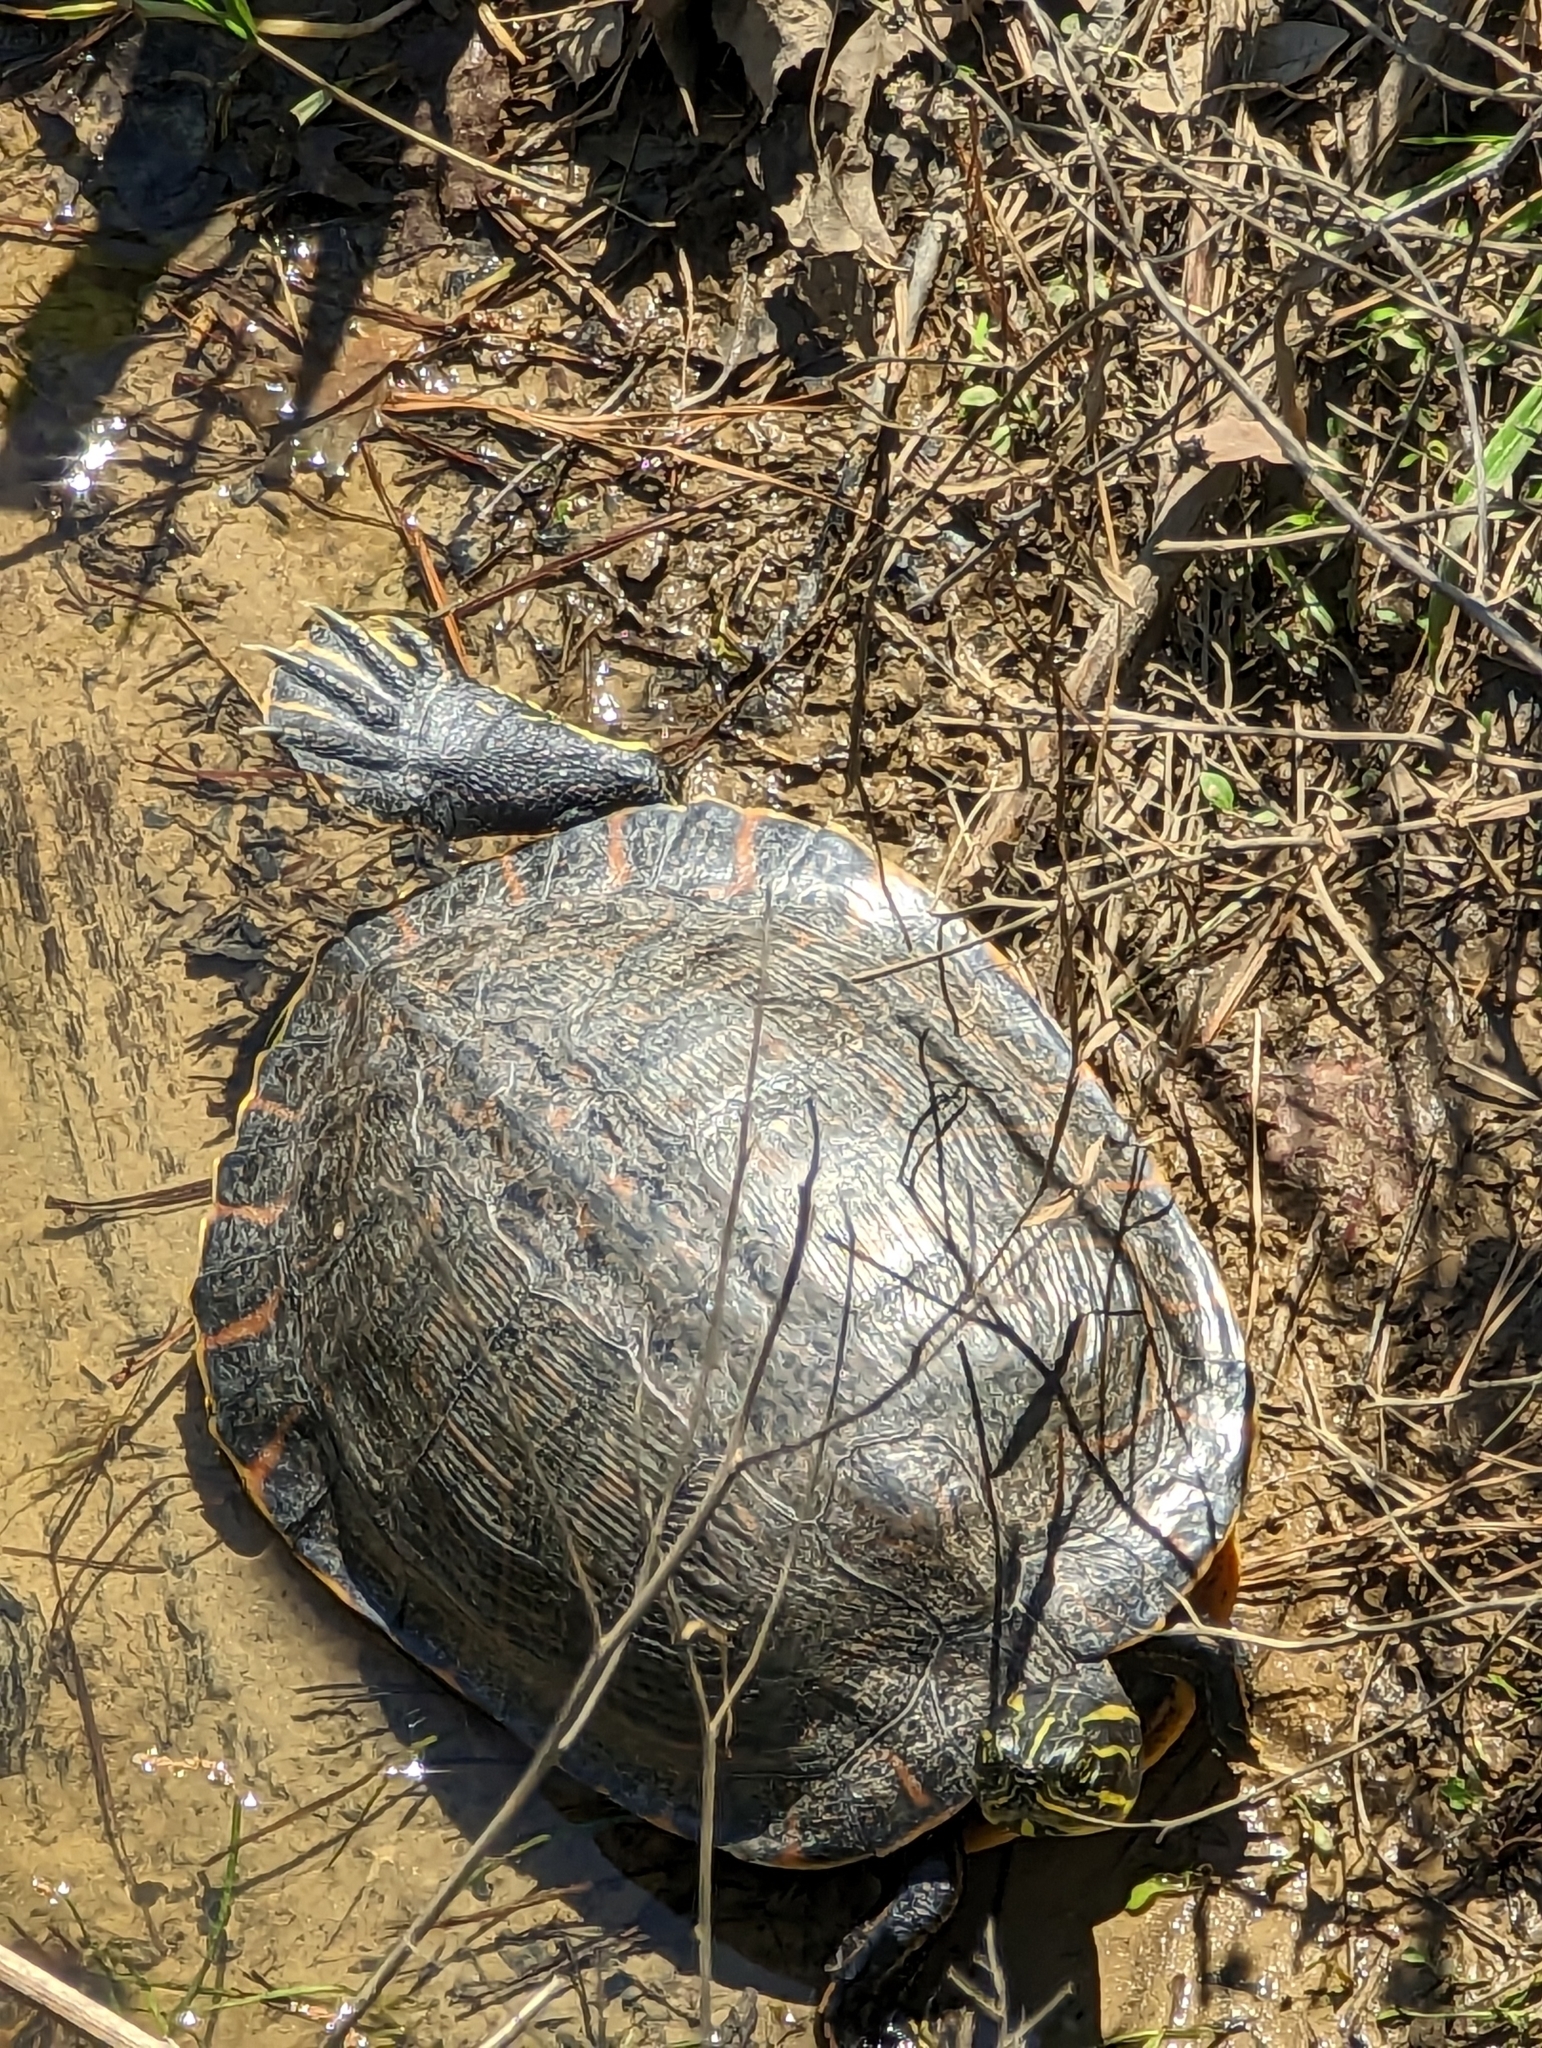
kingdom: Animalia
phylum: Chordata
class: Testudines
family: Emydidae
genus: Pseudemys
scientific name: Pseudemys concinna
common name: Eastern river cooter
